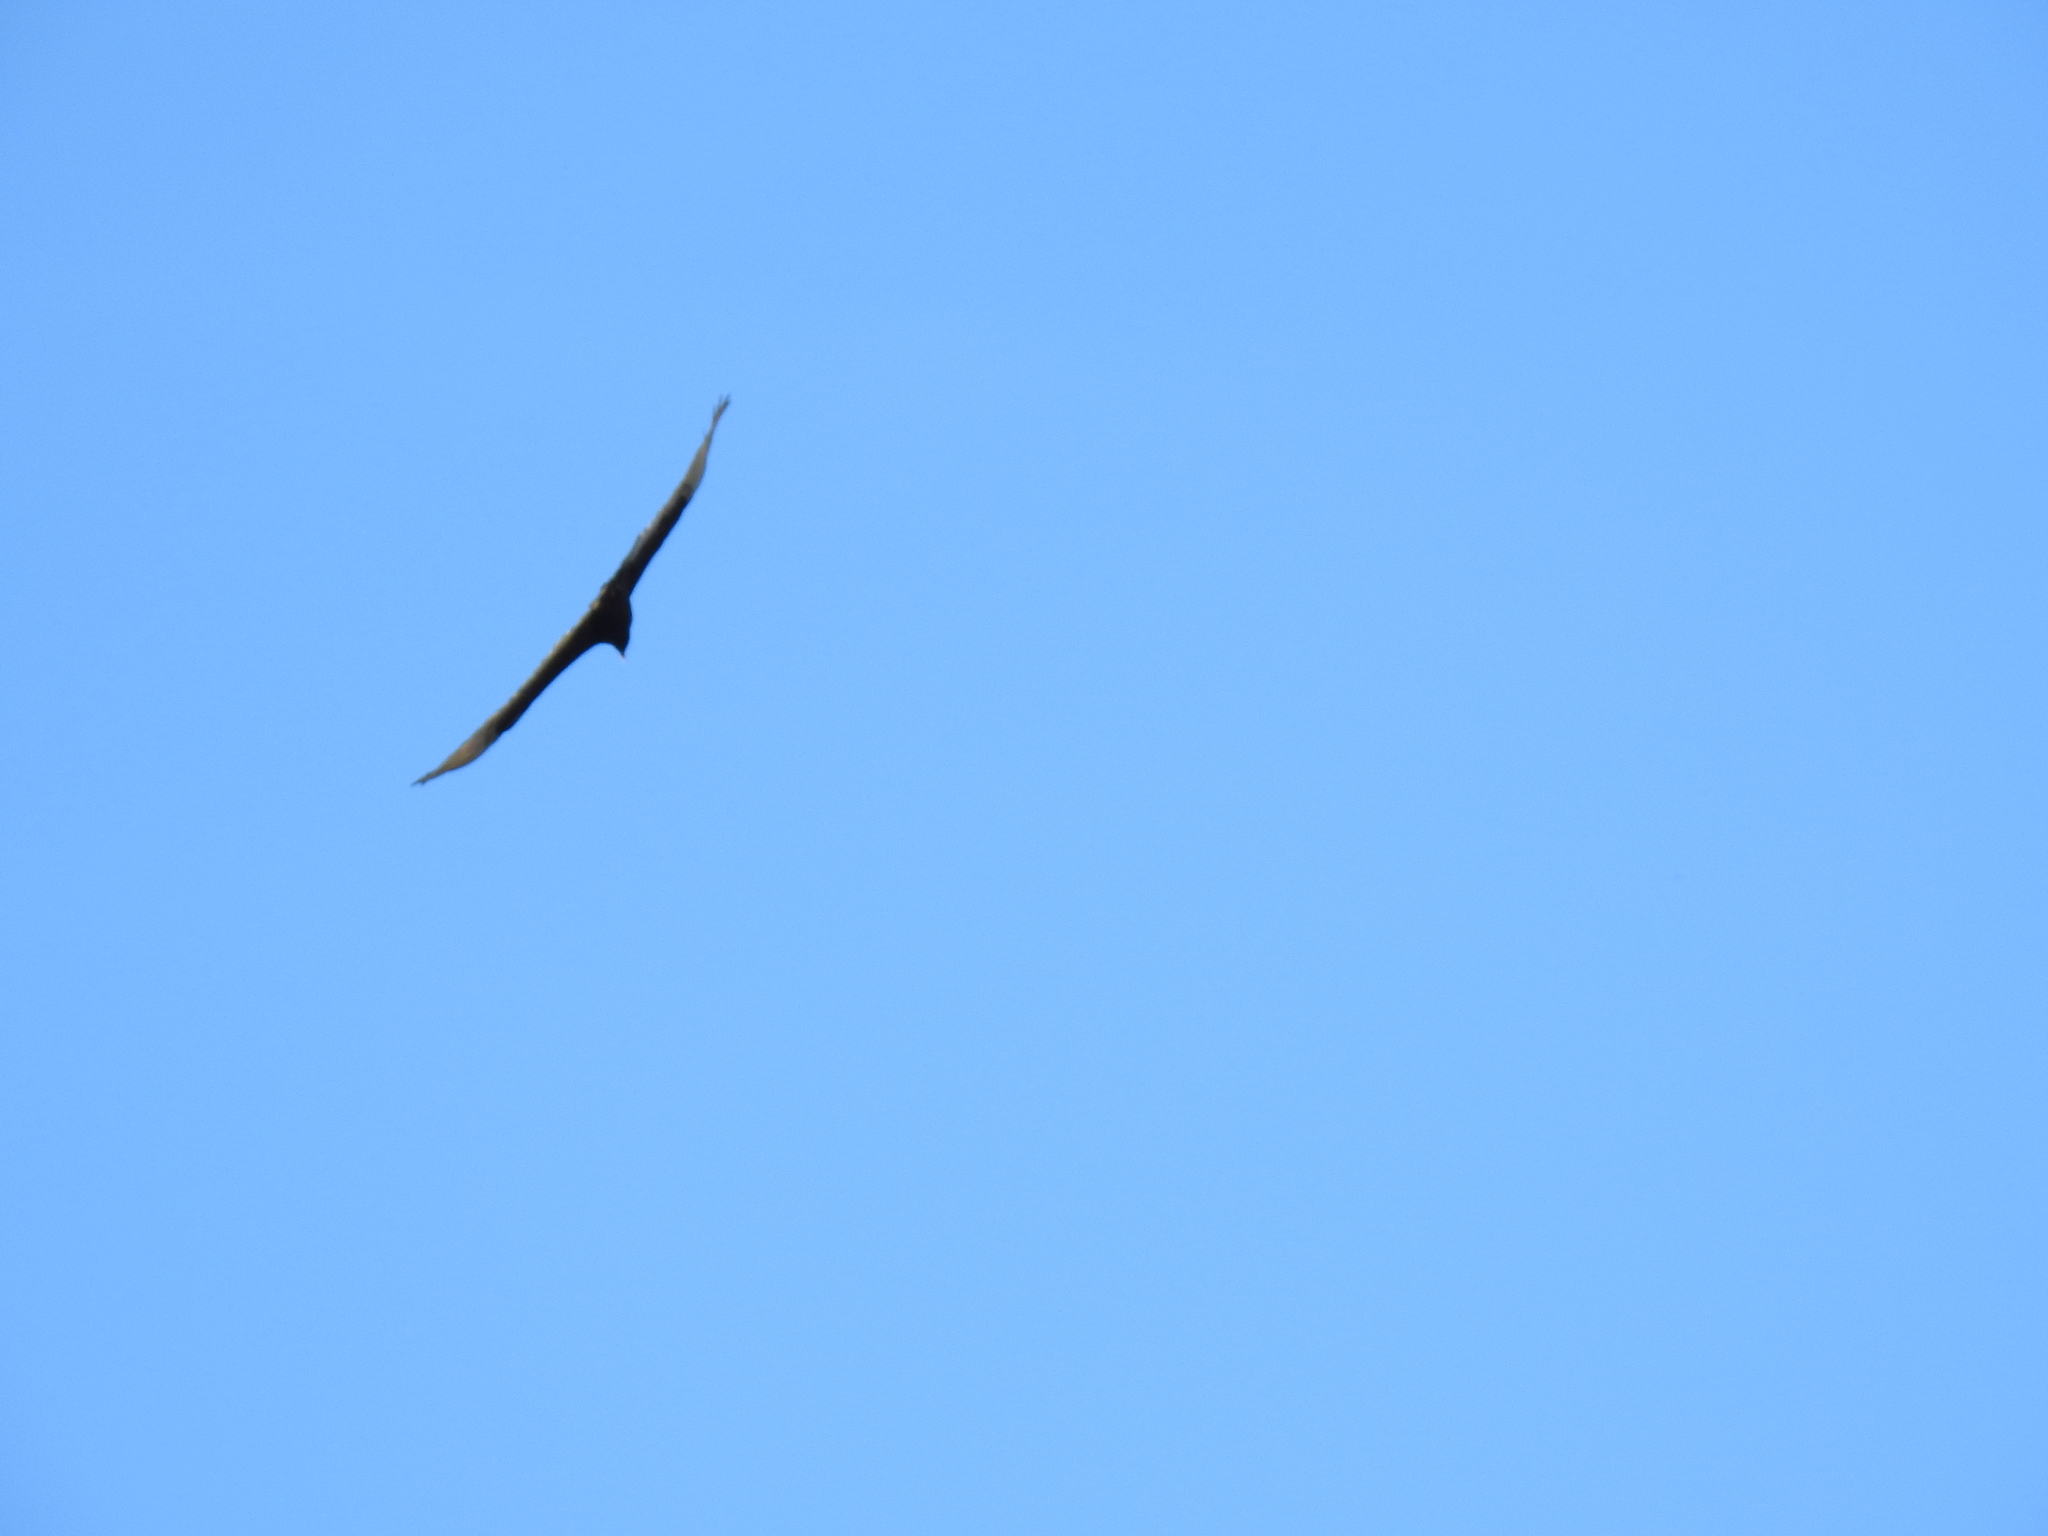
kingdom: Animalia
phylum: Chordata
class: Aves
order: Accipitriformes
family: Cathartidae
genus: Cathartes
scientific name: Cathartes aura
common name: Turkey vulture
